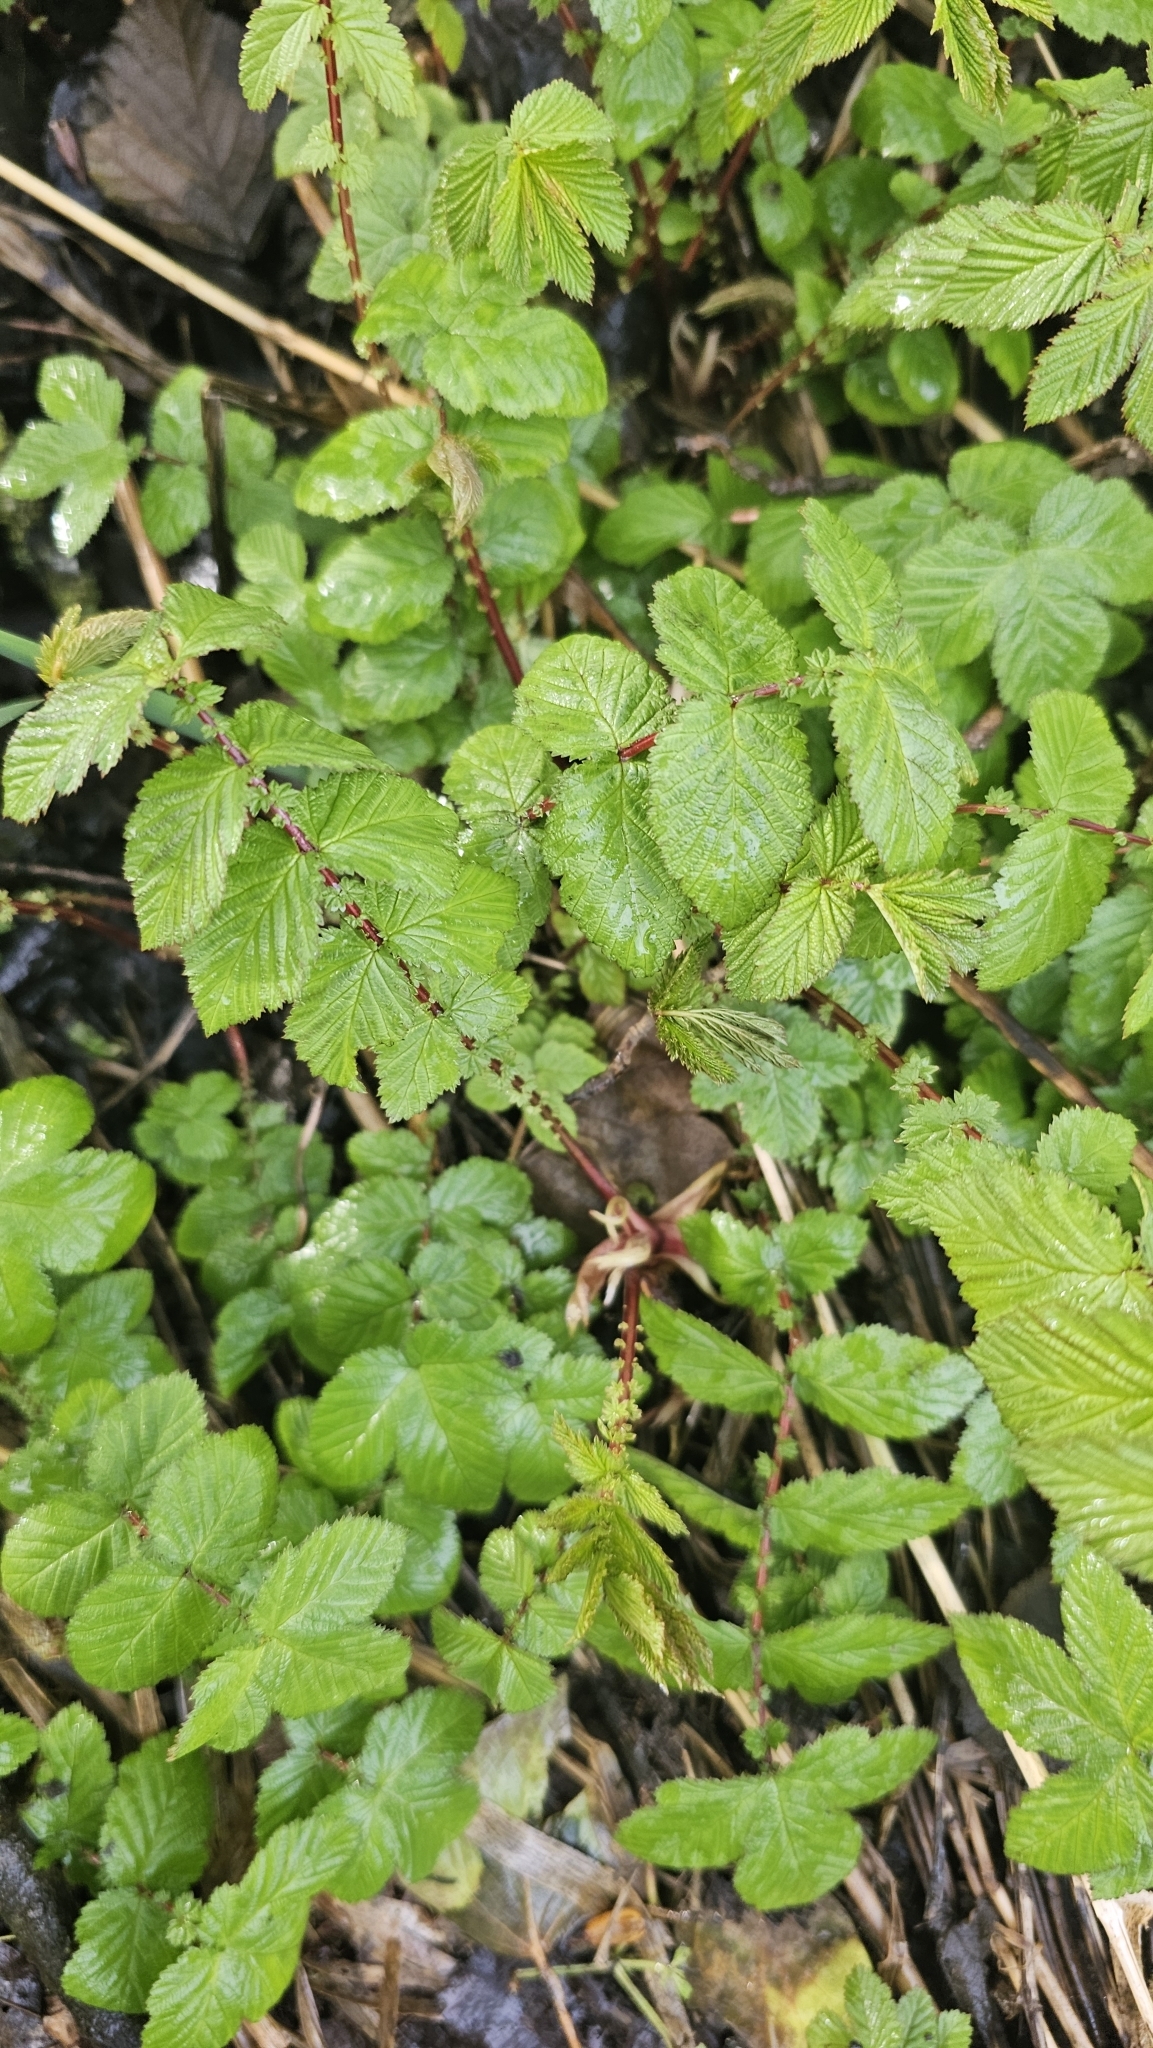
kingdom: Plantae
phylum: Tracheophyta
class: Magnoliopsida
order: Rosales
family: Rosaceae
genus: Filipendula
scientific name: Filipendula ulmaria
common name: Meadowsweet
